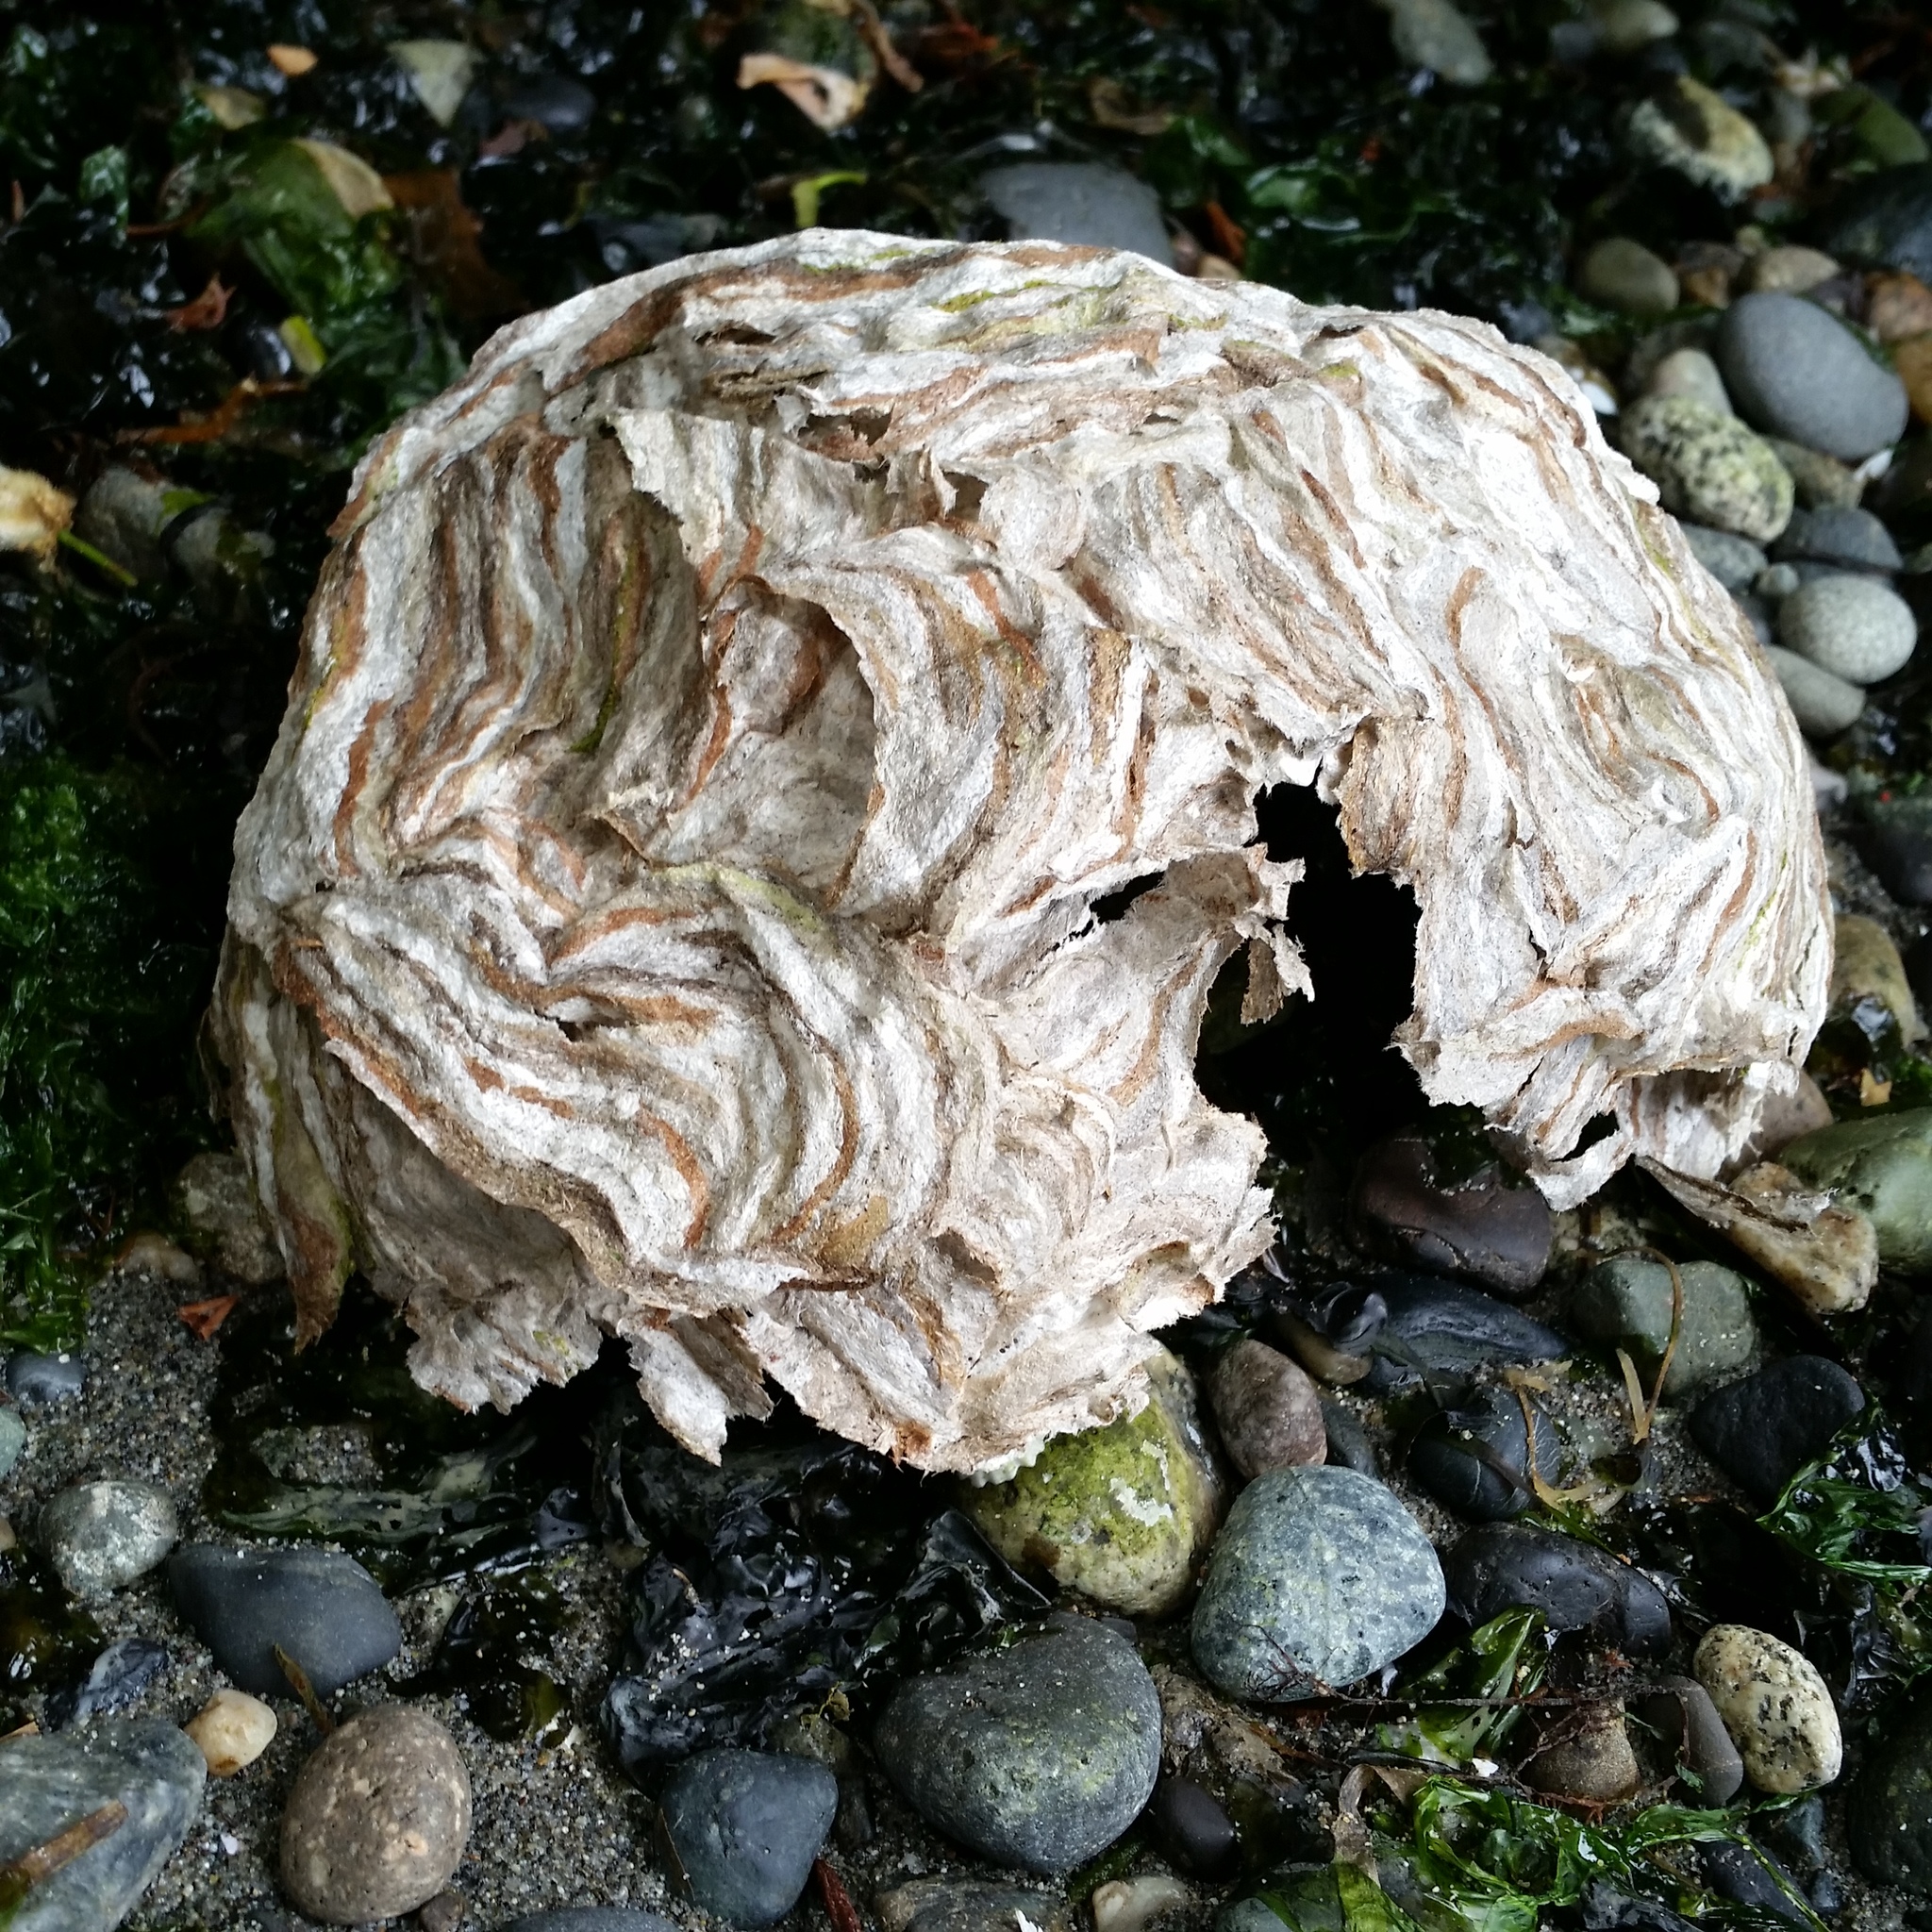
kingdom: Animalia
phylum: Arthropoda
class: Insecta
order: Hymenoptera
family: Vespidae
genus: Dolichovespula
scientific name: Dolichovespula
